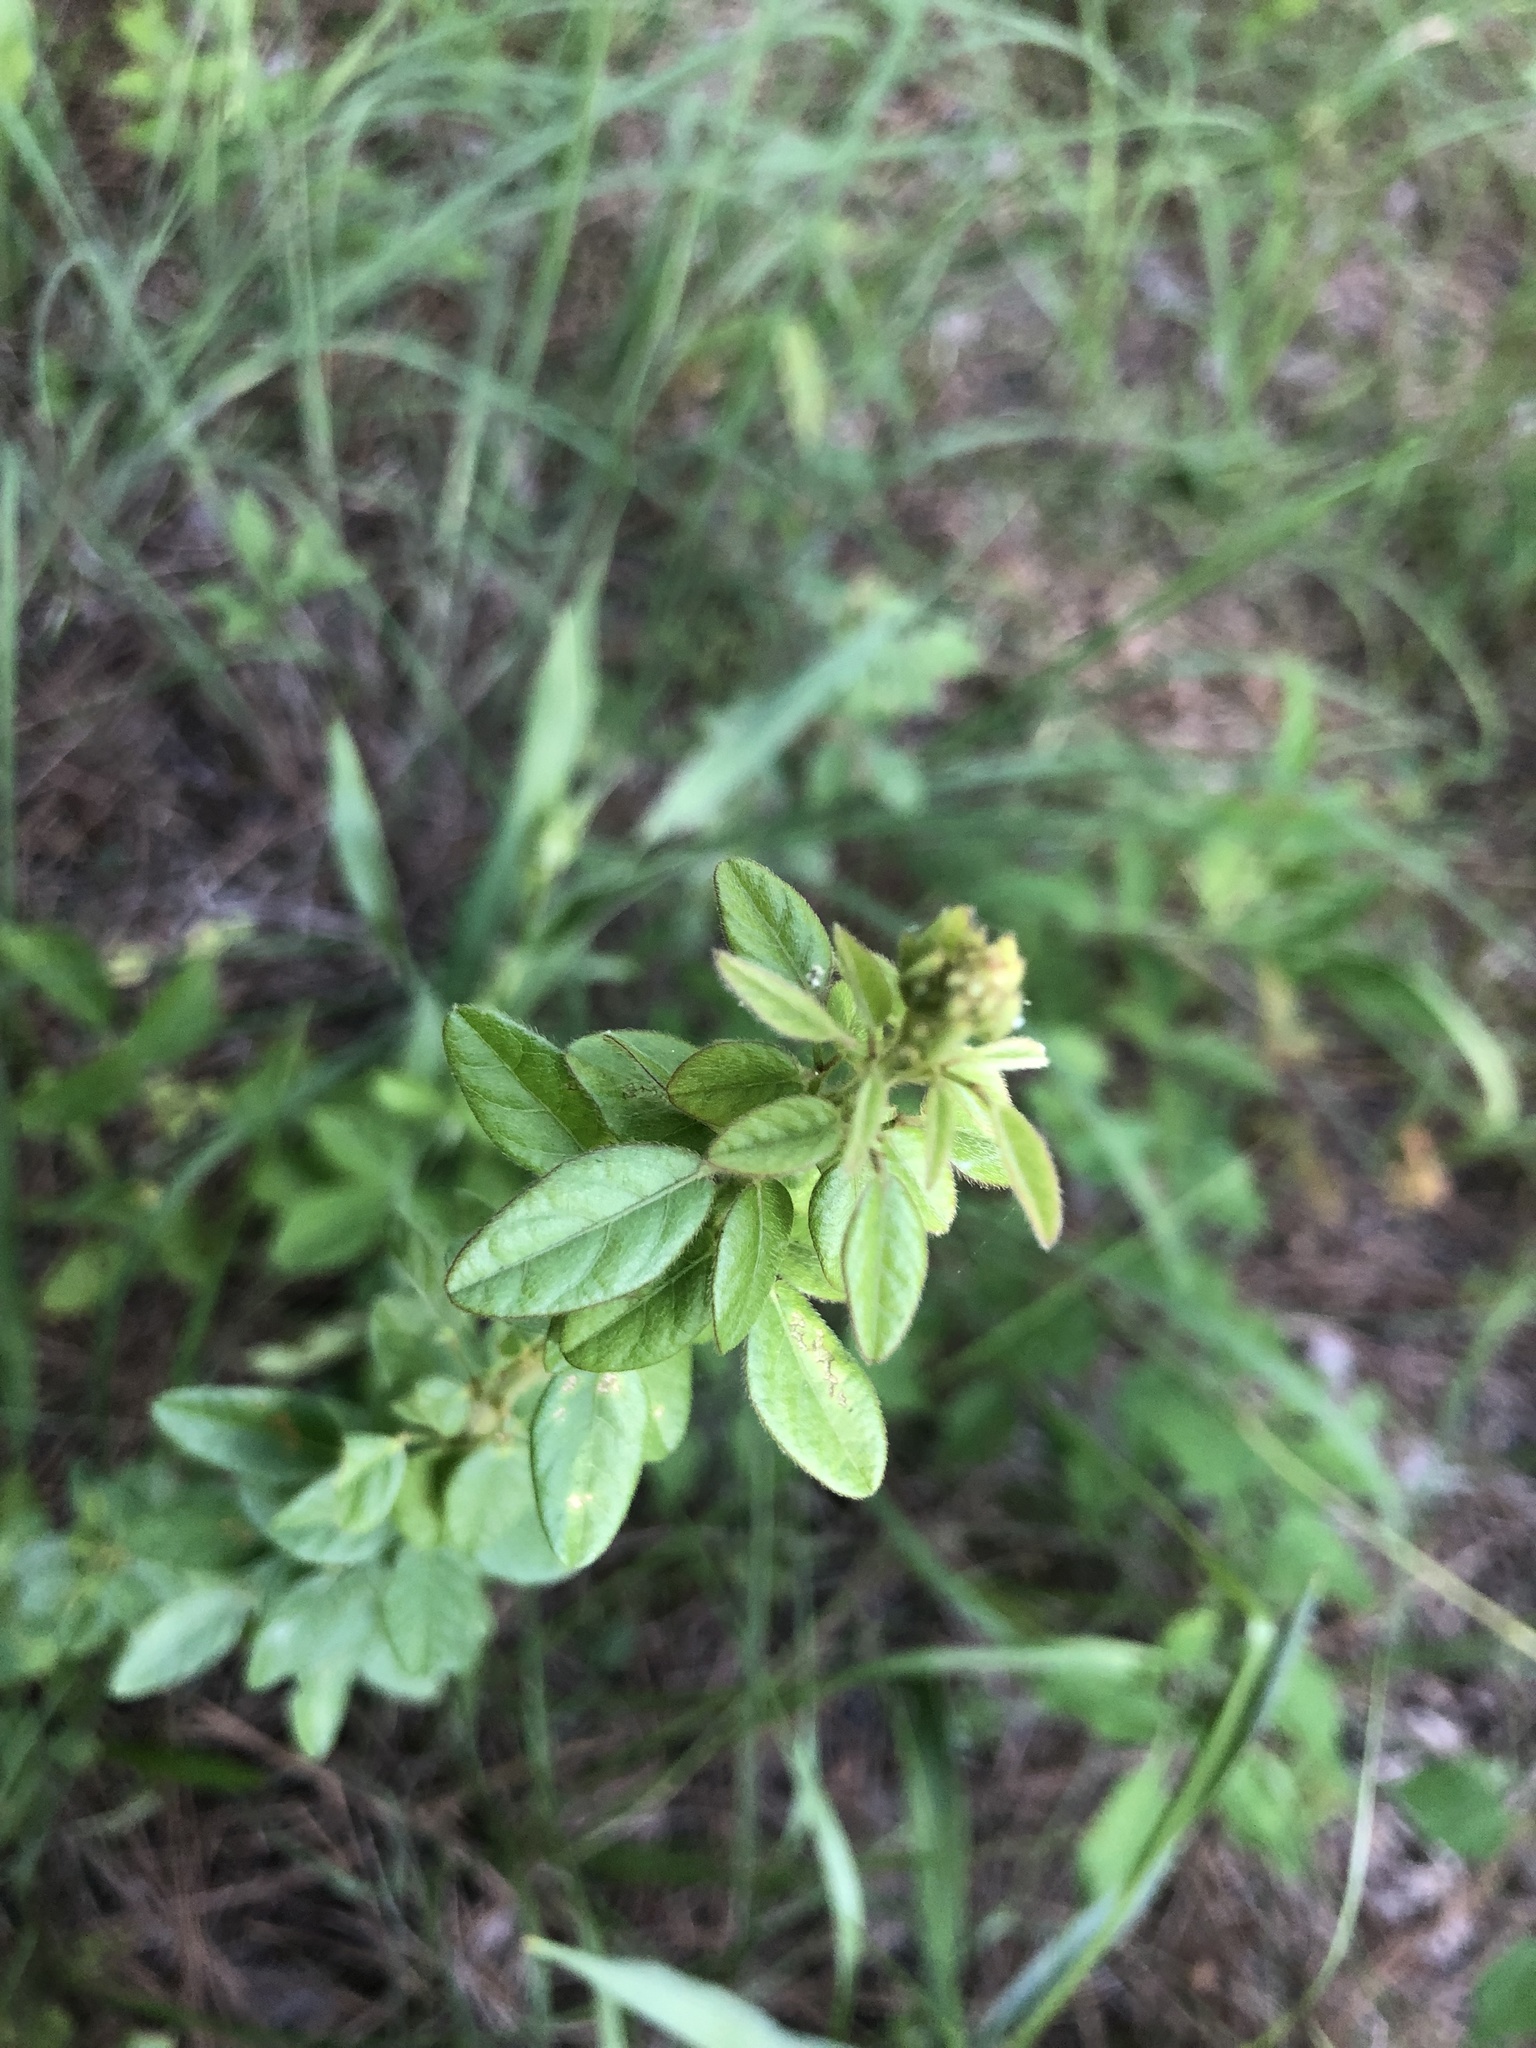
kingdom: Plantae
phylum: Tracheophyta
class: Magnoliopsida
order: Fabales
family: Fabaceae
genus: Desmodium
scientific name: Desmodium ciliare
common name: Hairy small-leaf ticktrefoil
